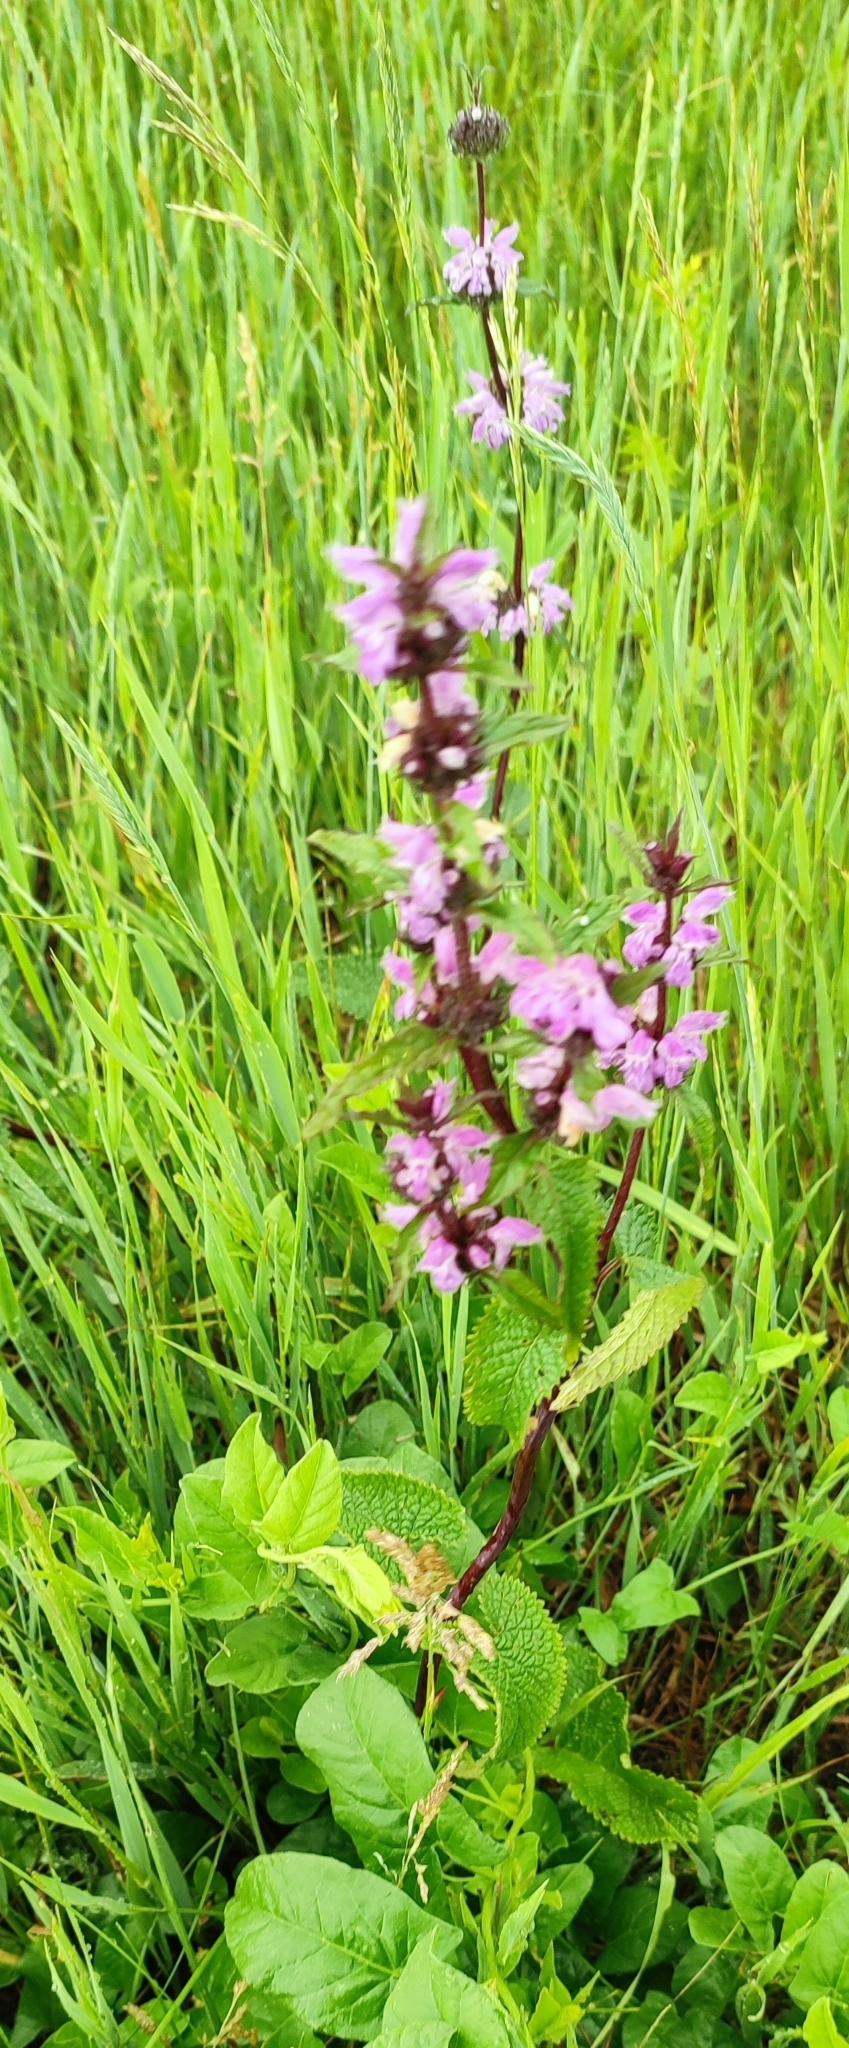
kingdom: Plantae
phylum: Tracheophyta
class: Magnoliopsida
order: Lamiales
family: Lamiaceae
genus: Phlomoides
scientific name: Phlomoides tuberosa
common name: Tuberous jerusalem sage
